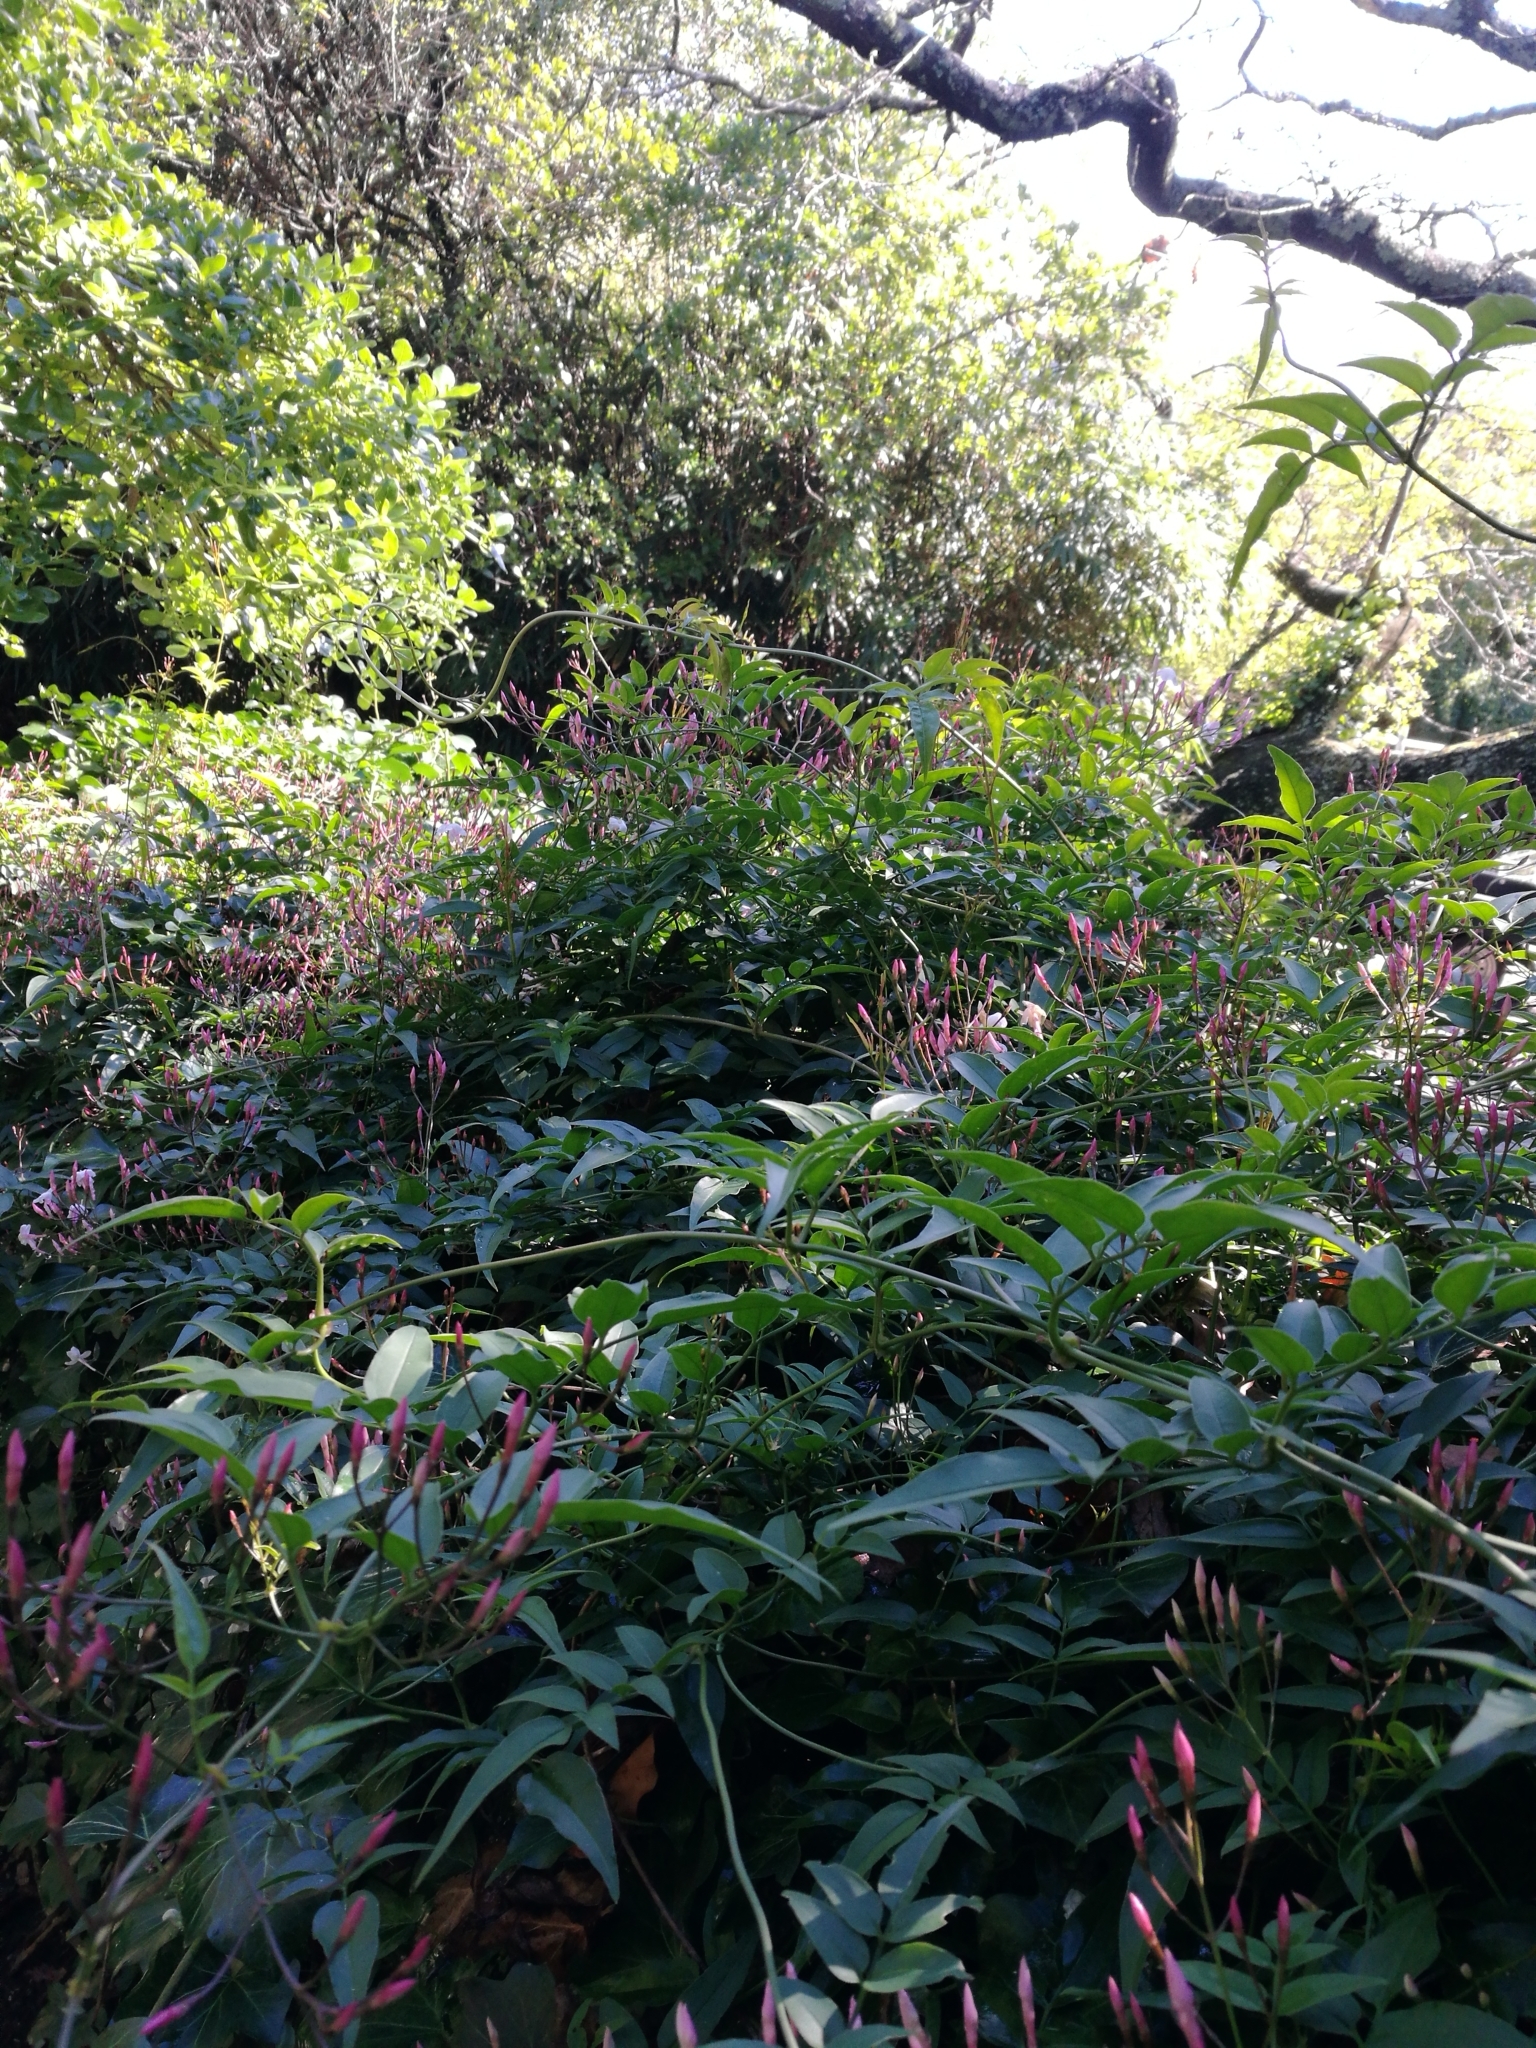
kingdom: Plantae
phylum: Tracheophyta
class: Magnoliopsida
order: Lamiales
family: Oleaceae
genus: Jasminum
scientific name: Jasminum polyanthum
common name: Pink jasmine
